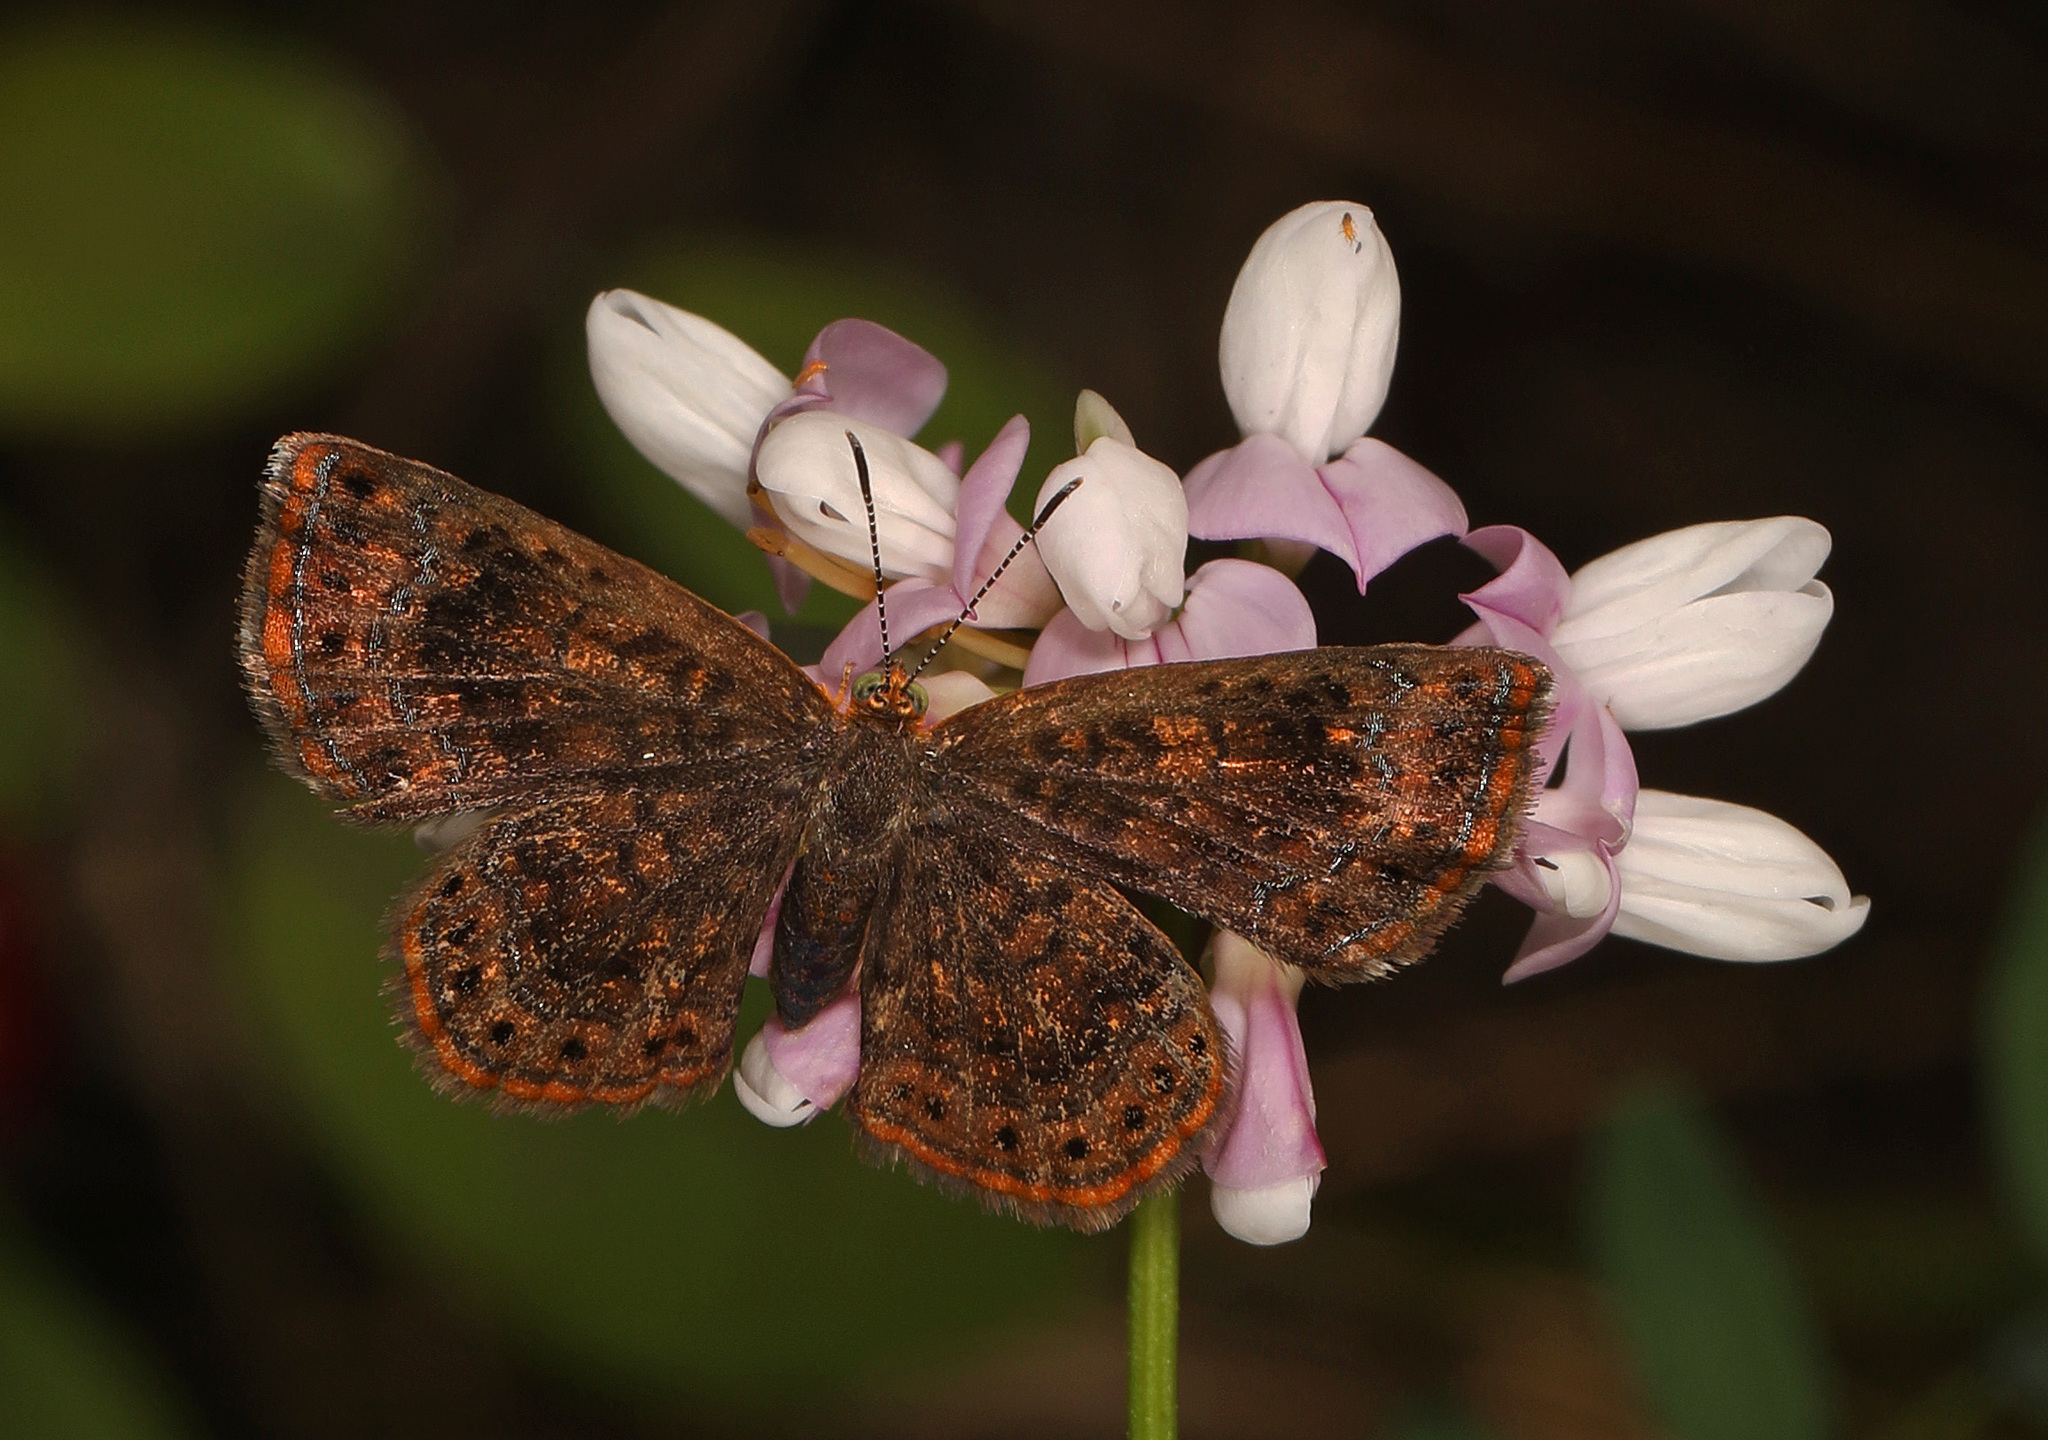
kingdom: Animalia
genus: Calephelis
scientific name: Calephelis borealis
